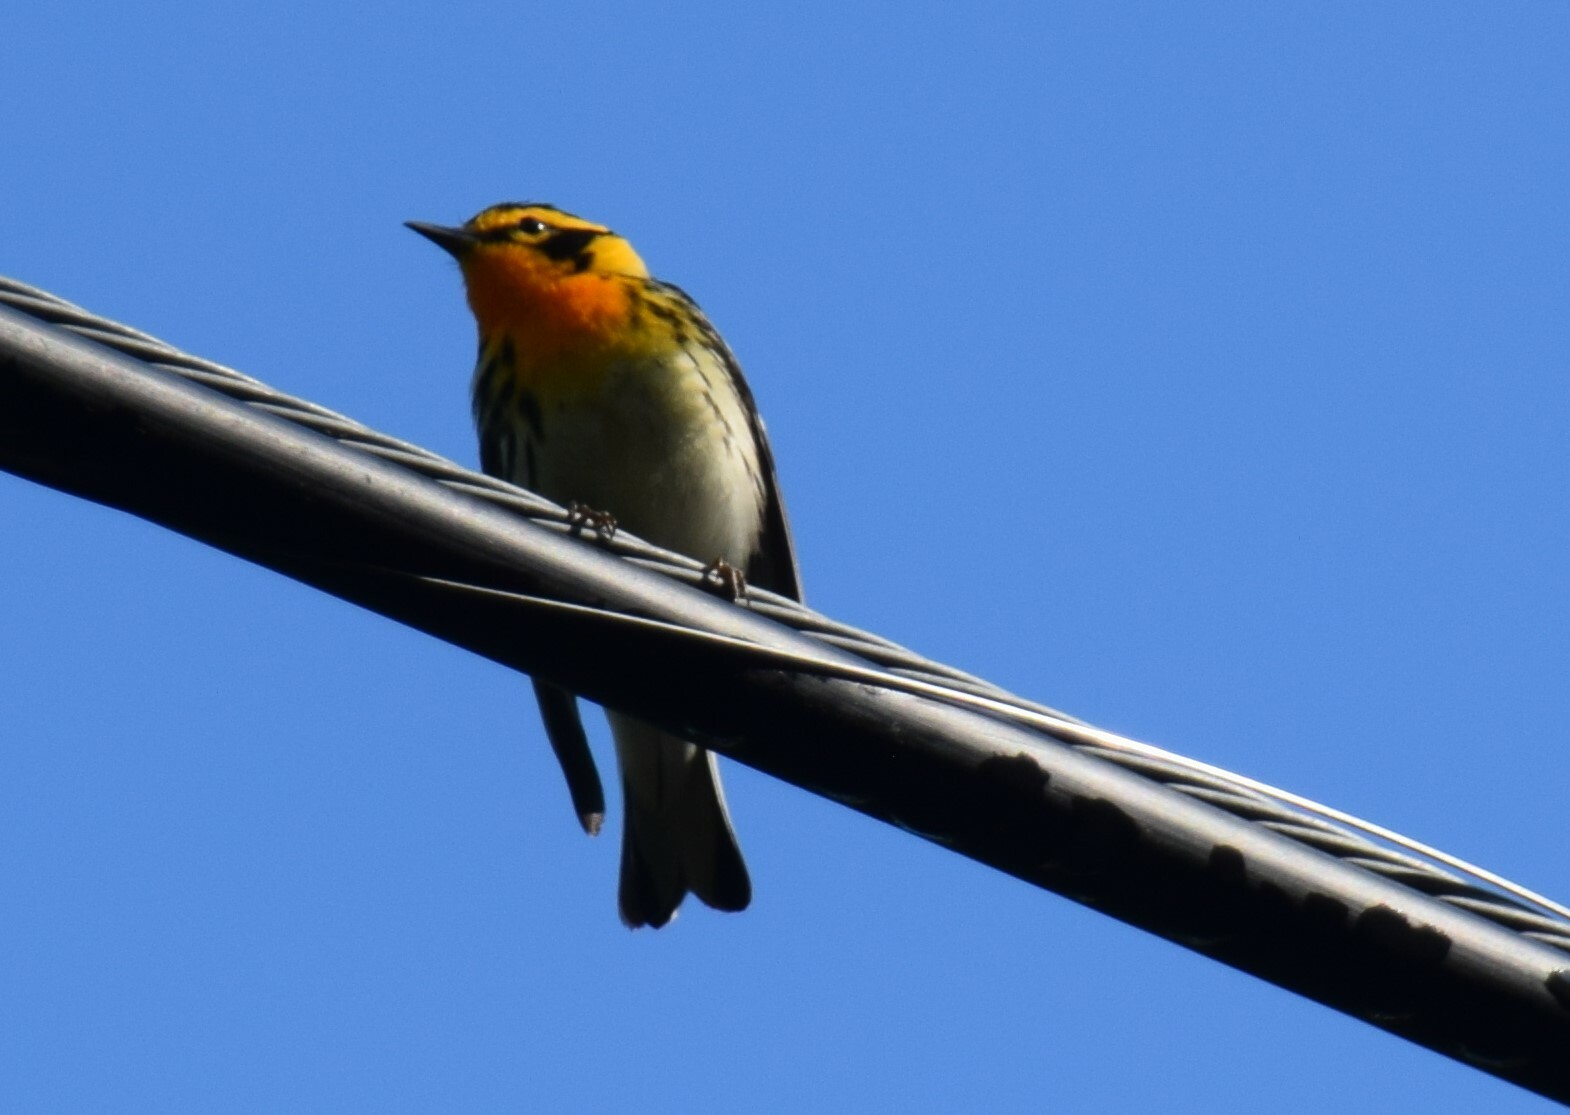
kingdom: Animalia
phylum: Chordata
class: Aves
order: Passeriformes
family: Parulidae
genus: Setophaga
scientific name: Setophaga fusca
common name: Blackburnian warbler
